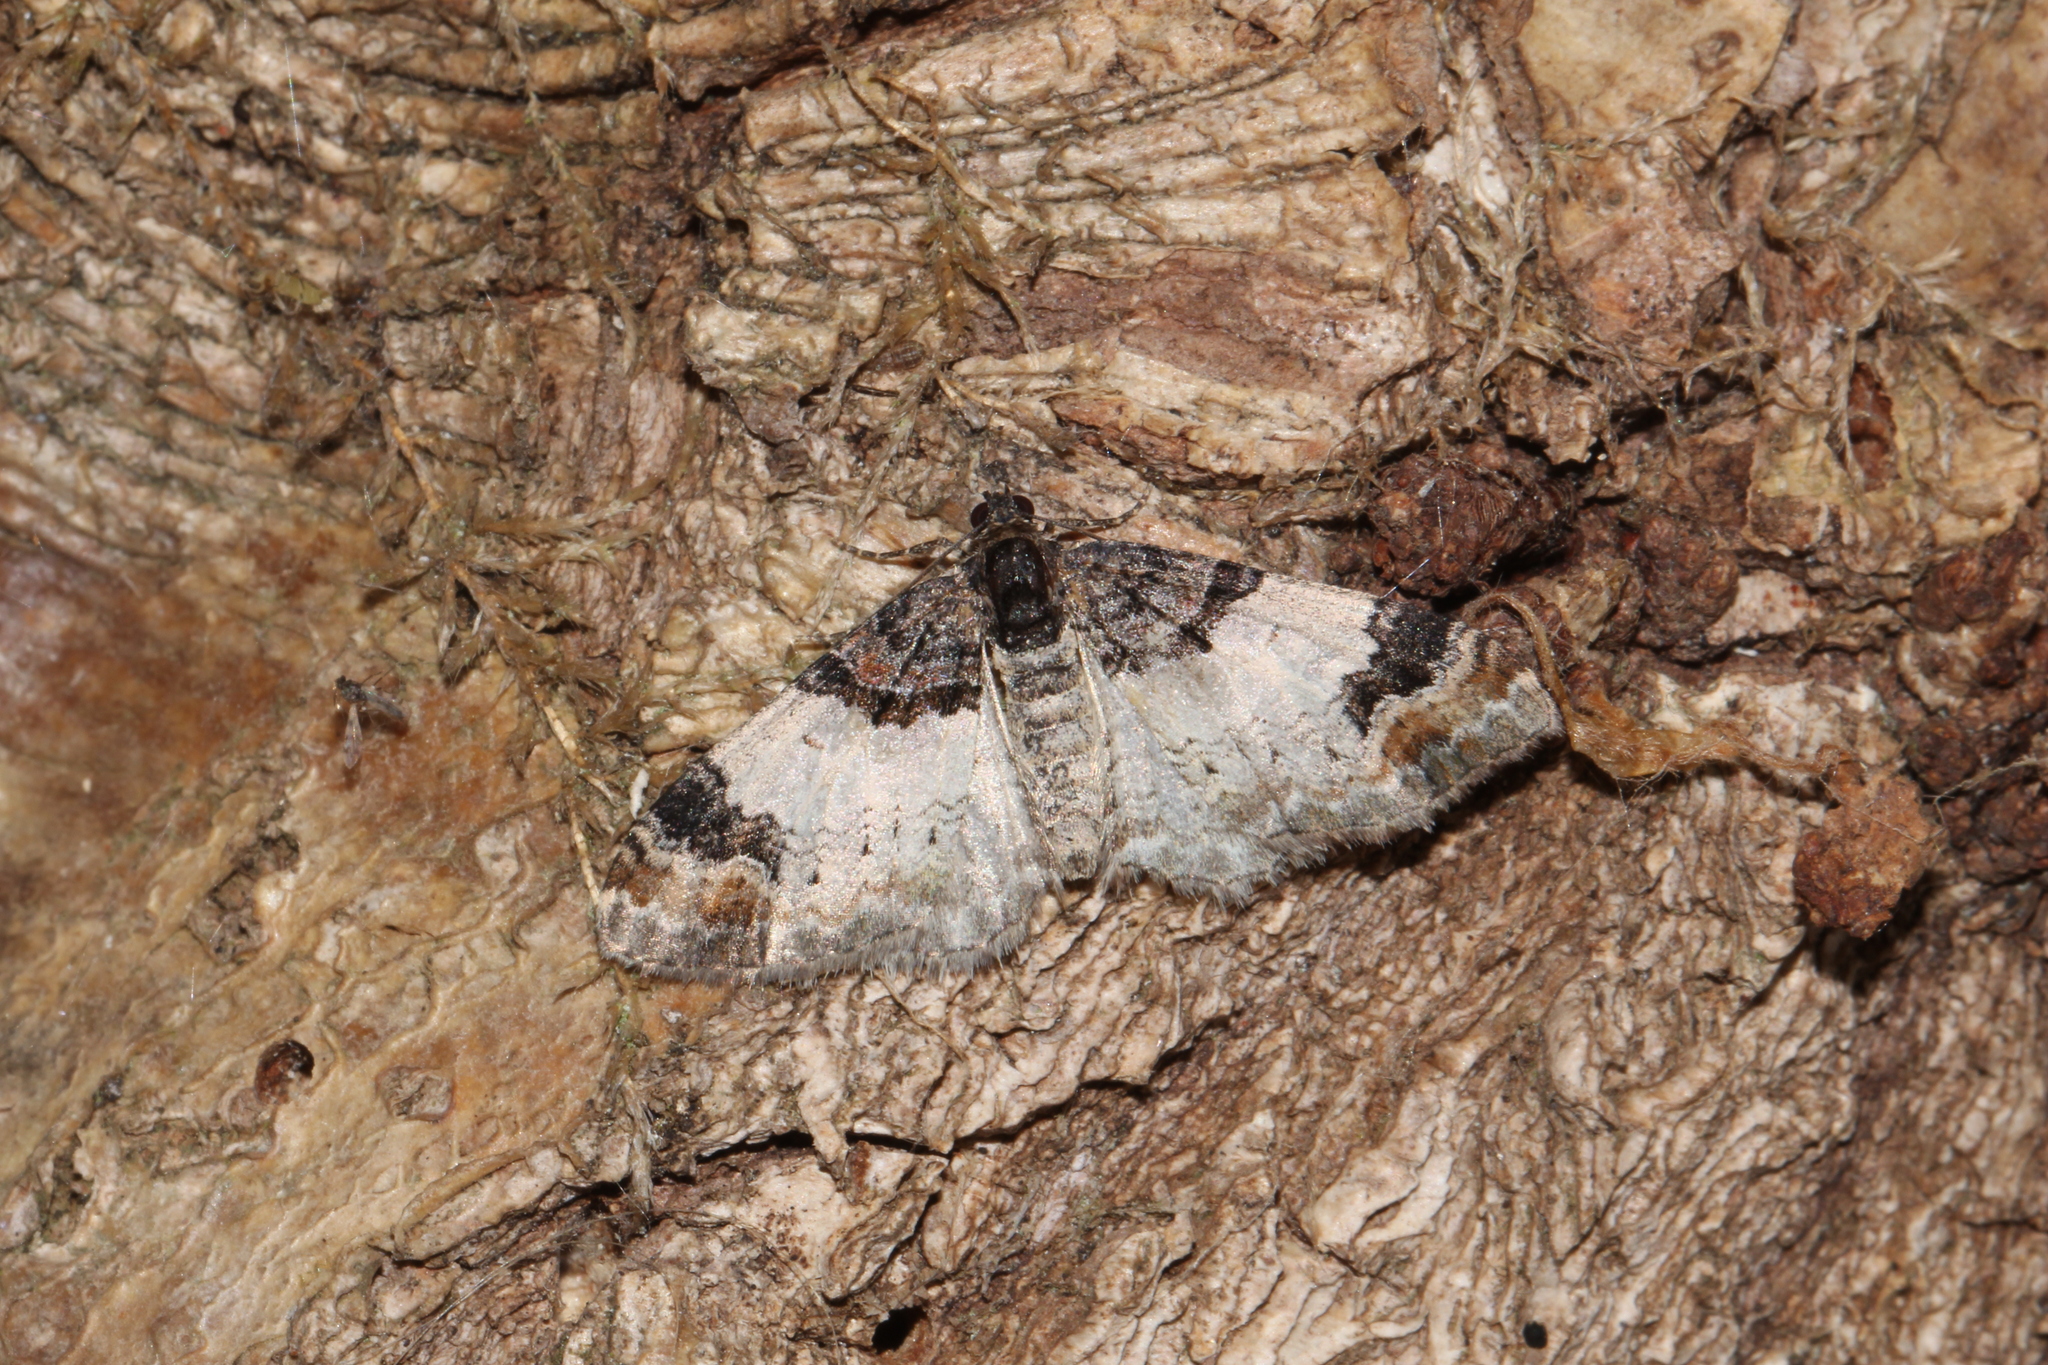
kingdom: Animalia
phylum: Arthropoda
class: Insecta
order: Lepidoptera
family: Geometridae
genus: Catarhoe
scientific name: Catarhoe cuculata
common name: Royal mantle
